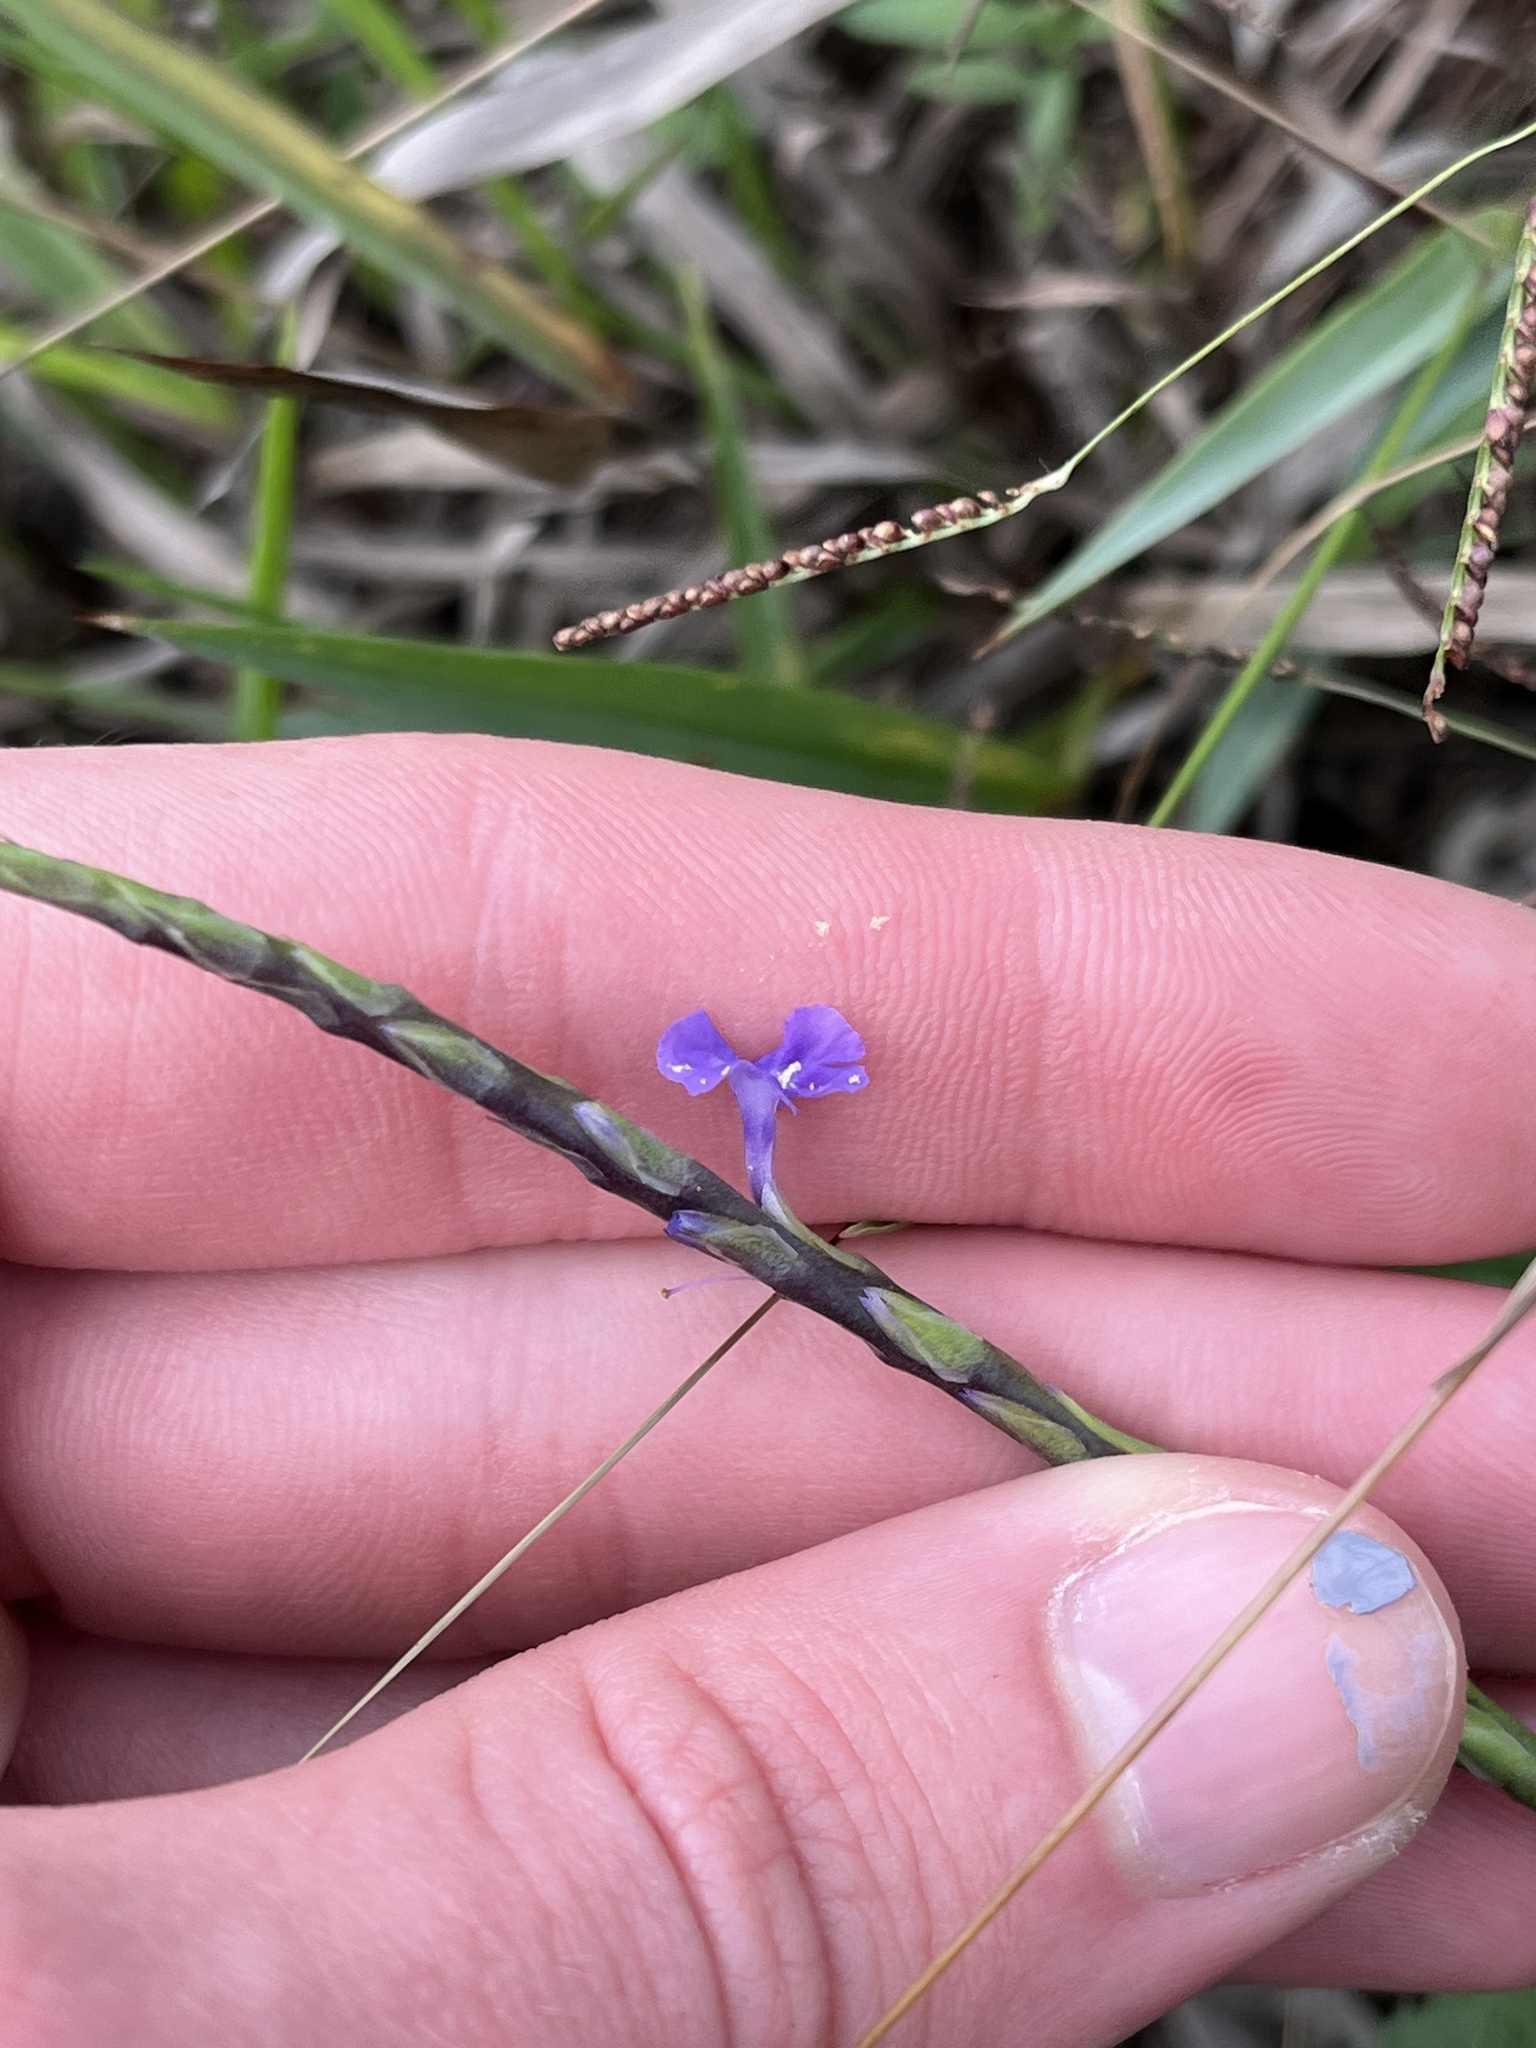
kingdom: Plantae
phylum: Tracheophyta
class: Magnoliopsida
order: Lamiales
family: Verbenaceae
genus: Stachytarpheta
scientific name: Stachytarpheta jamaicensis
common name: Light-blue snakeweed
